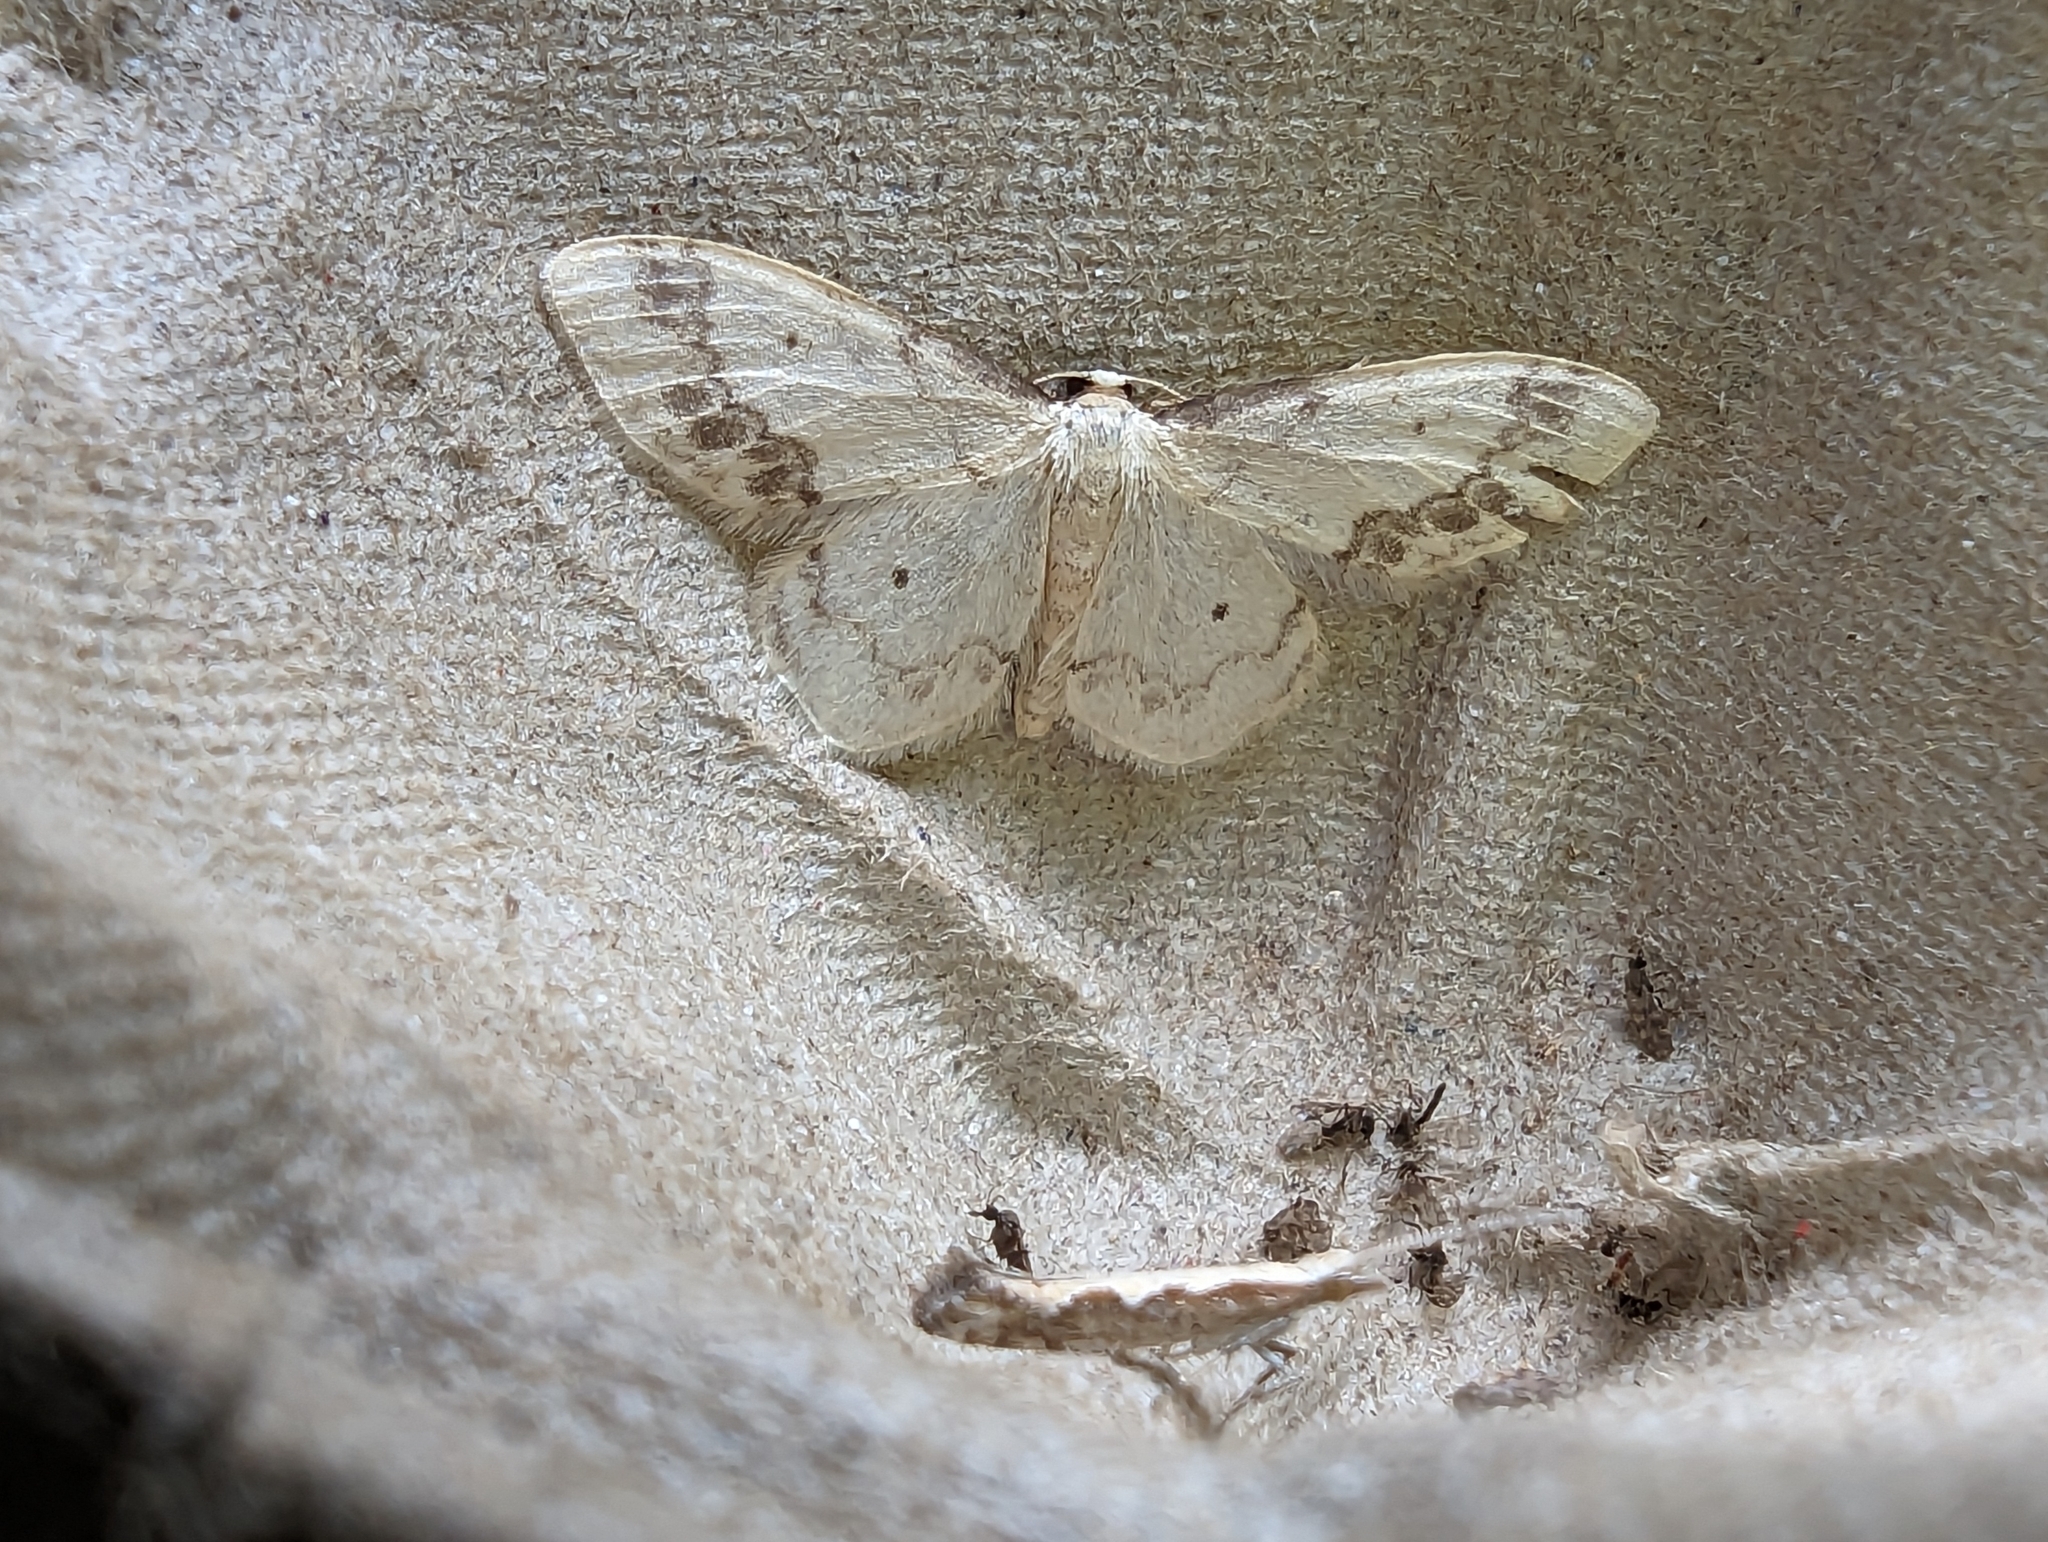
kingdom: Animalia
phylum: Arthropoda
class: Insecta
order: Lepidoptera
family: Geometridae
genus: Idaea
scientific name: Idaea trigeminata
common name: Treble brown spot
